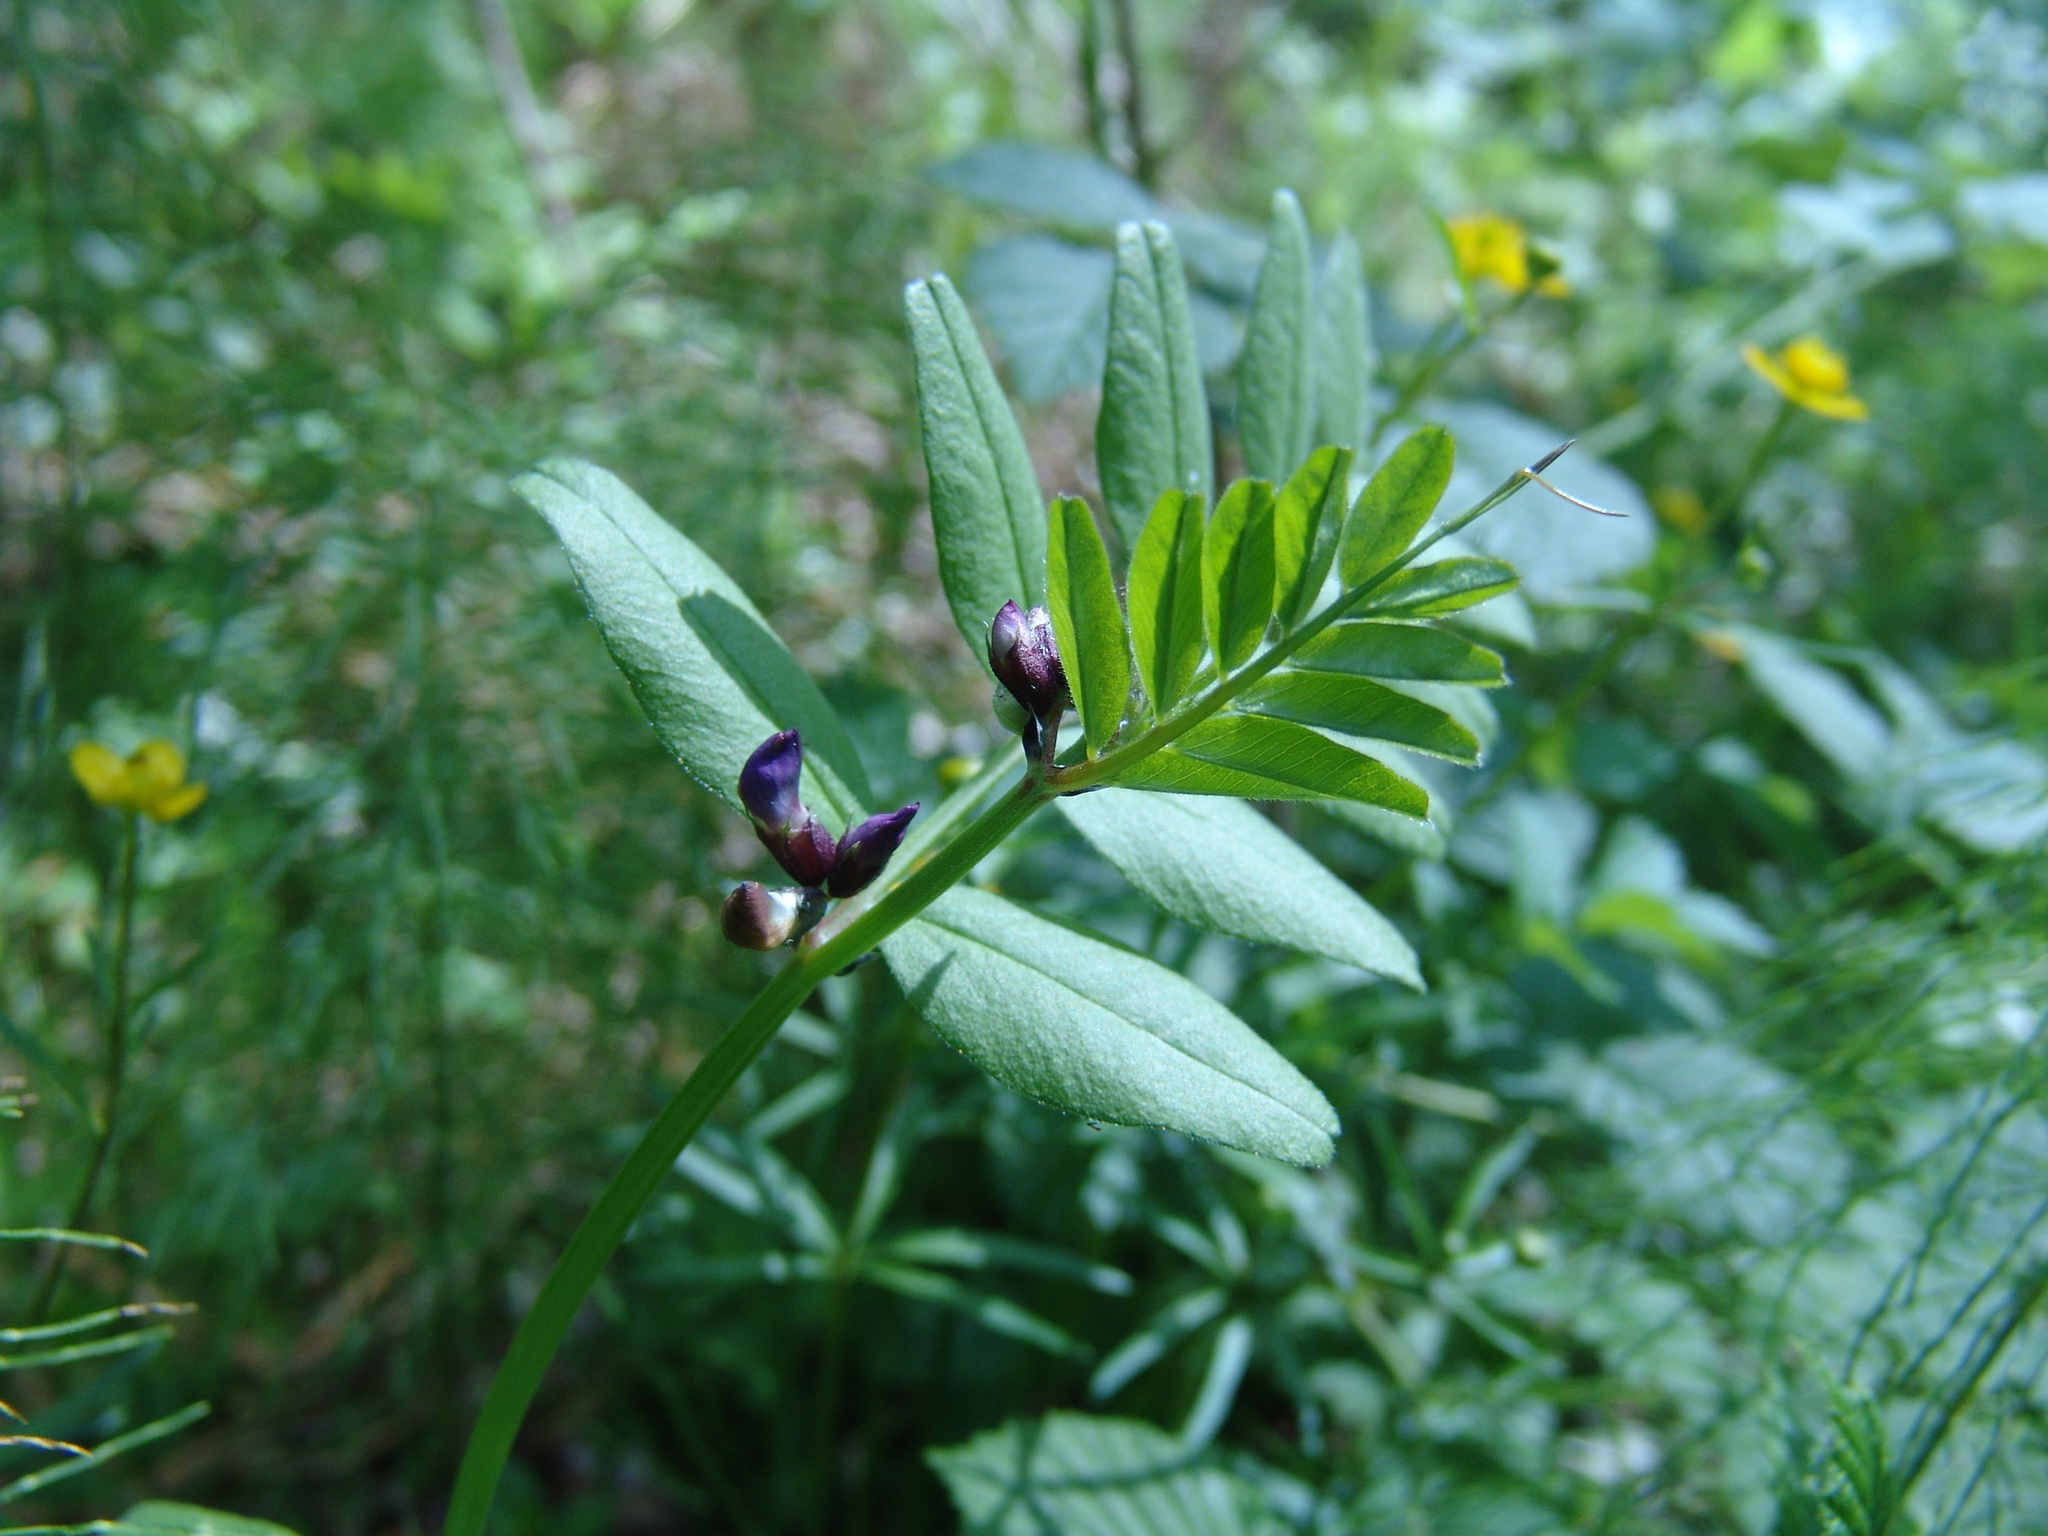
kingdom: Plantae
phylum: Tracheophyta
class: Magnoliopsida
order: Fabales
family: Fabaceae
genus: Vicia
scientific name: Vicia sepium
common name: Bush vetch
